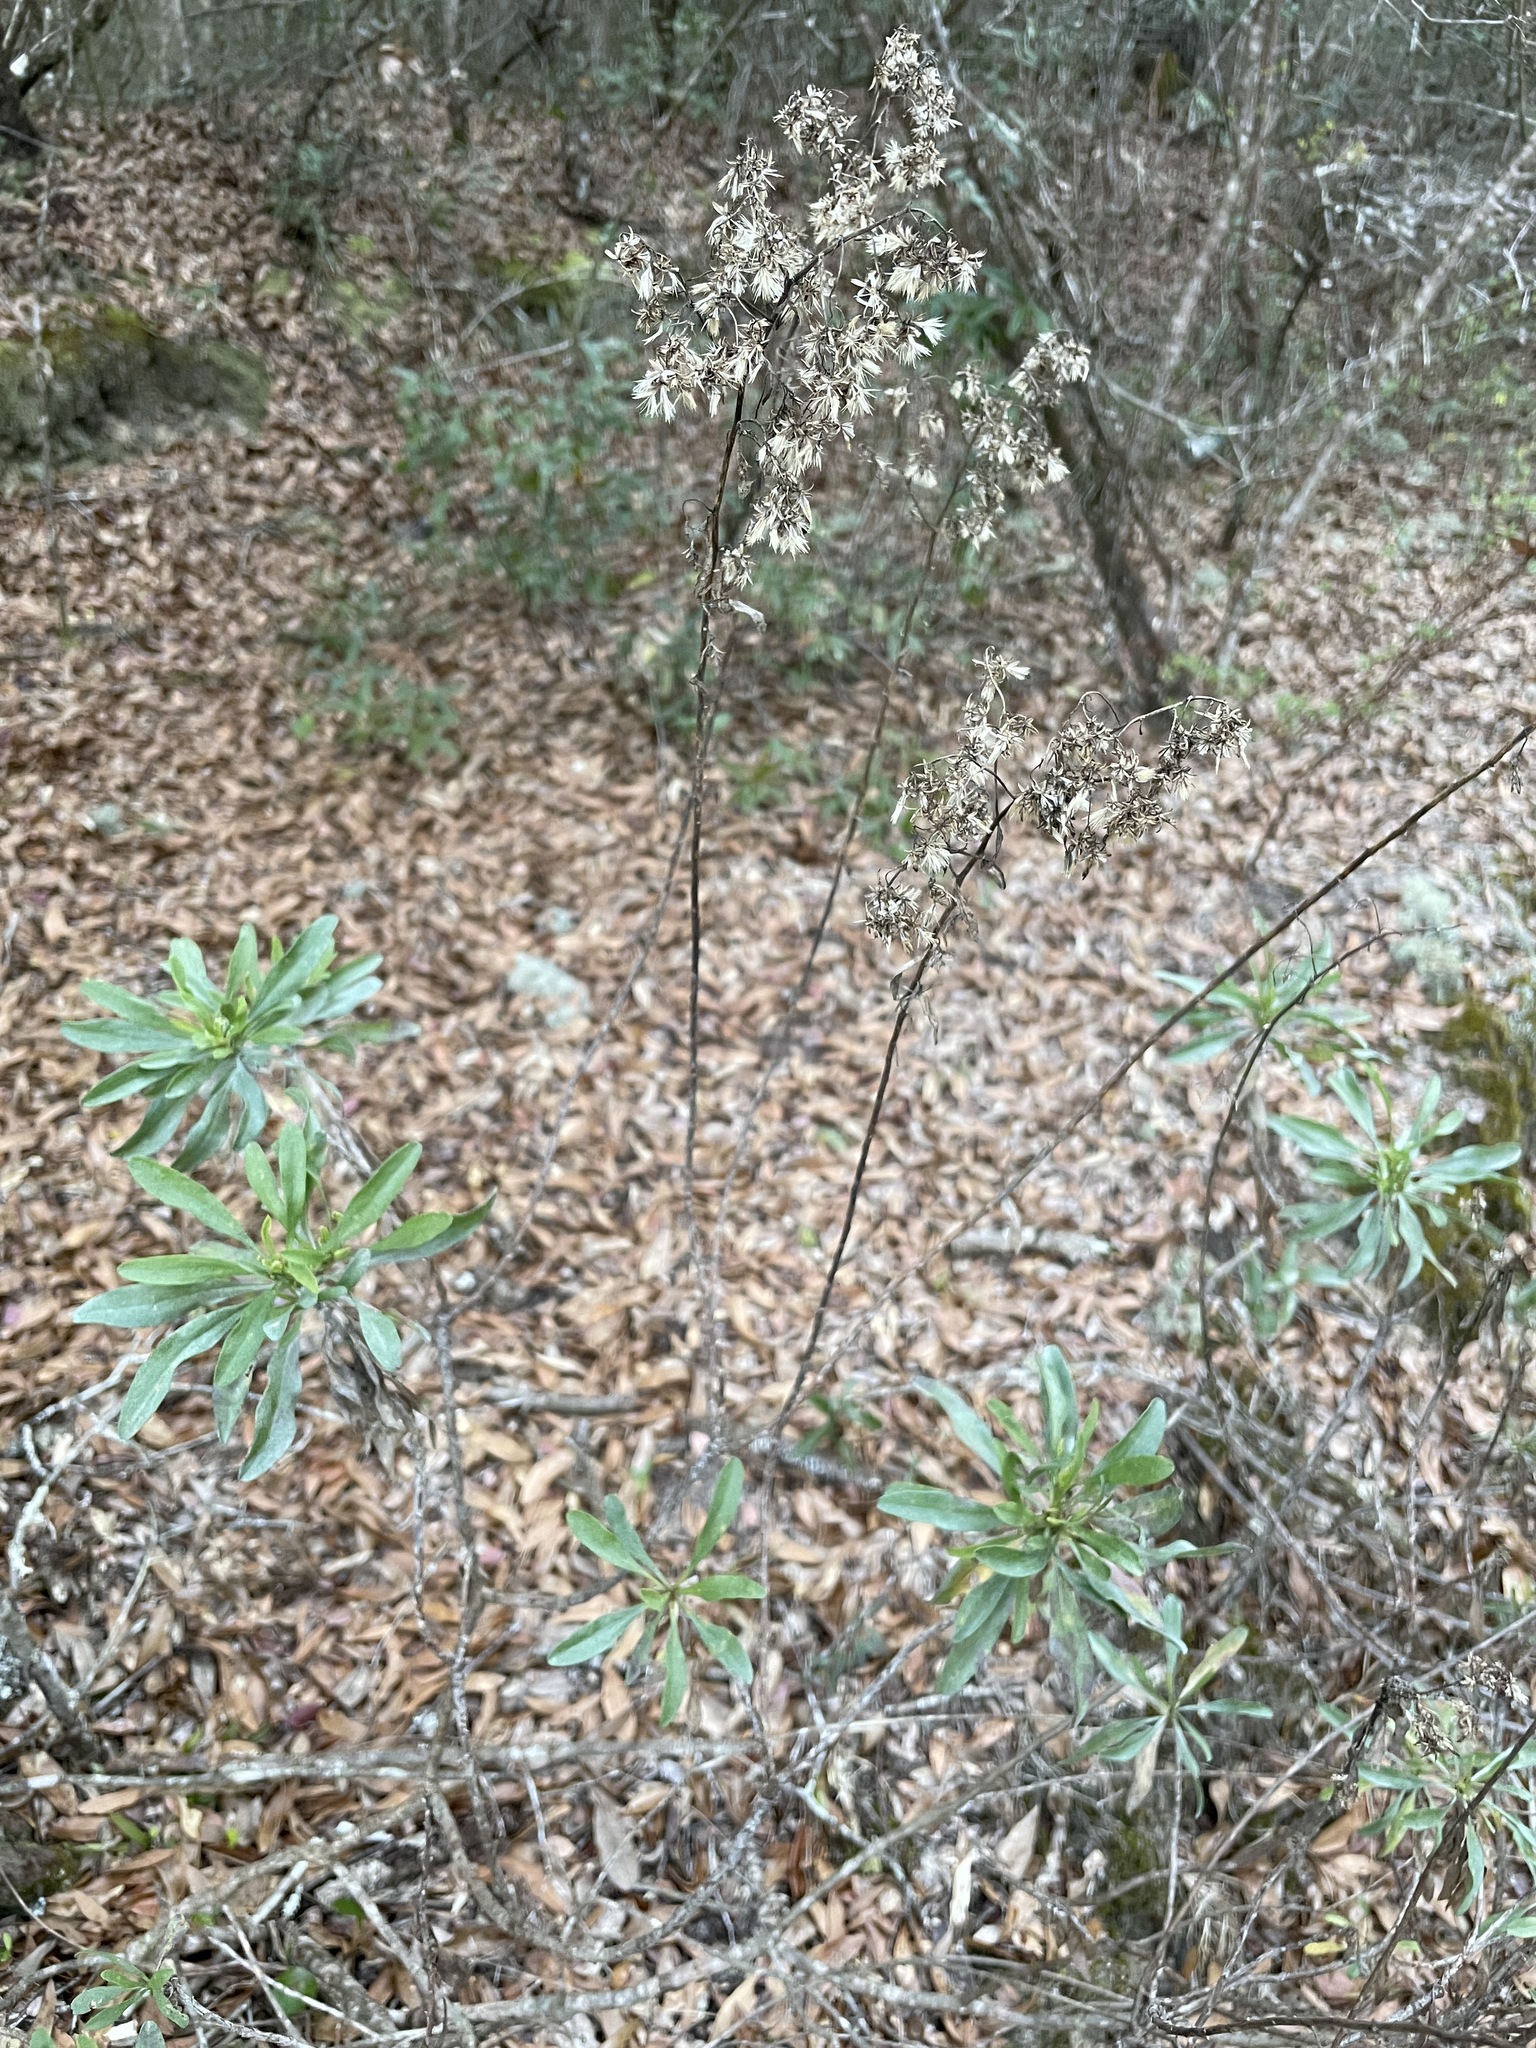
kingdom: Plantae
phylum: Tracheophyta
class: Magnoliopsida
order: Asterales
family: Asteraceae
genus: Chrysoma
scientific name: Chrysoma pauciflosculosa
